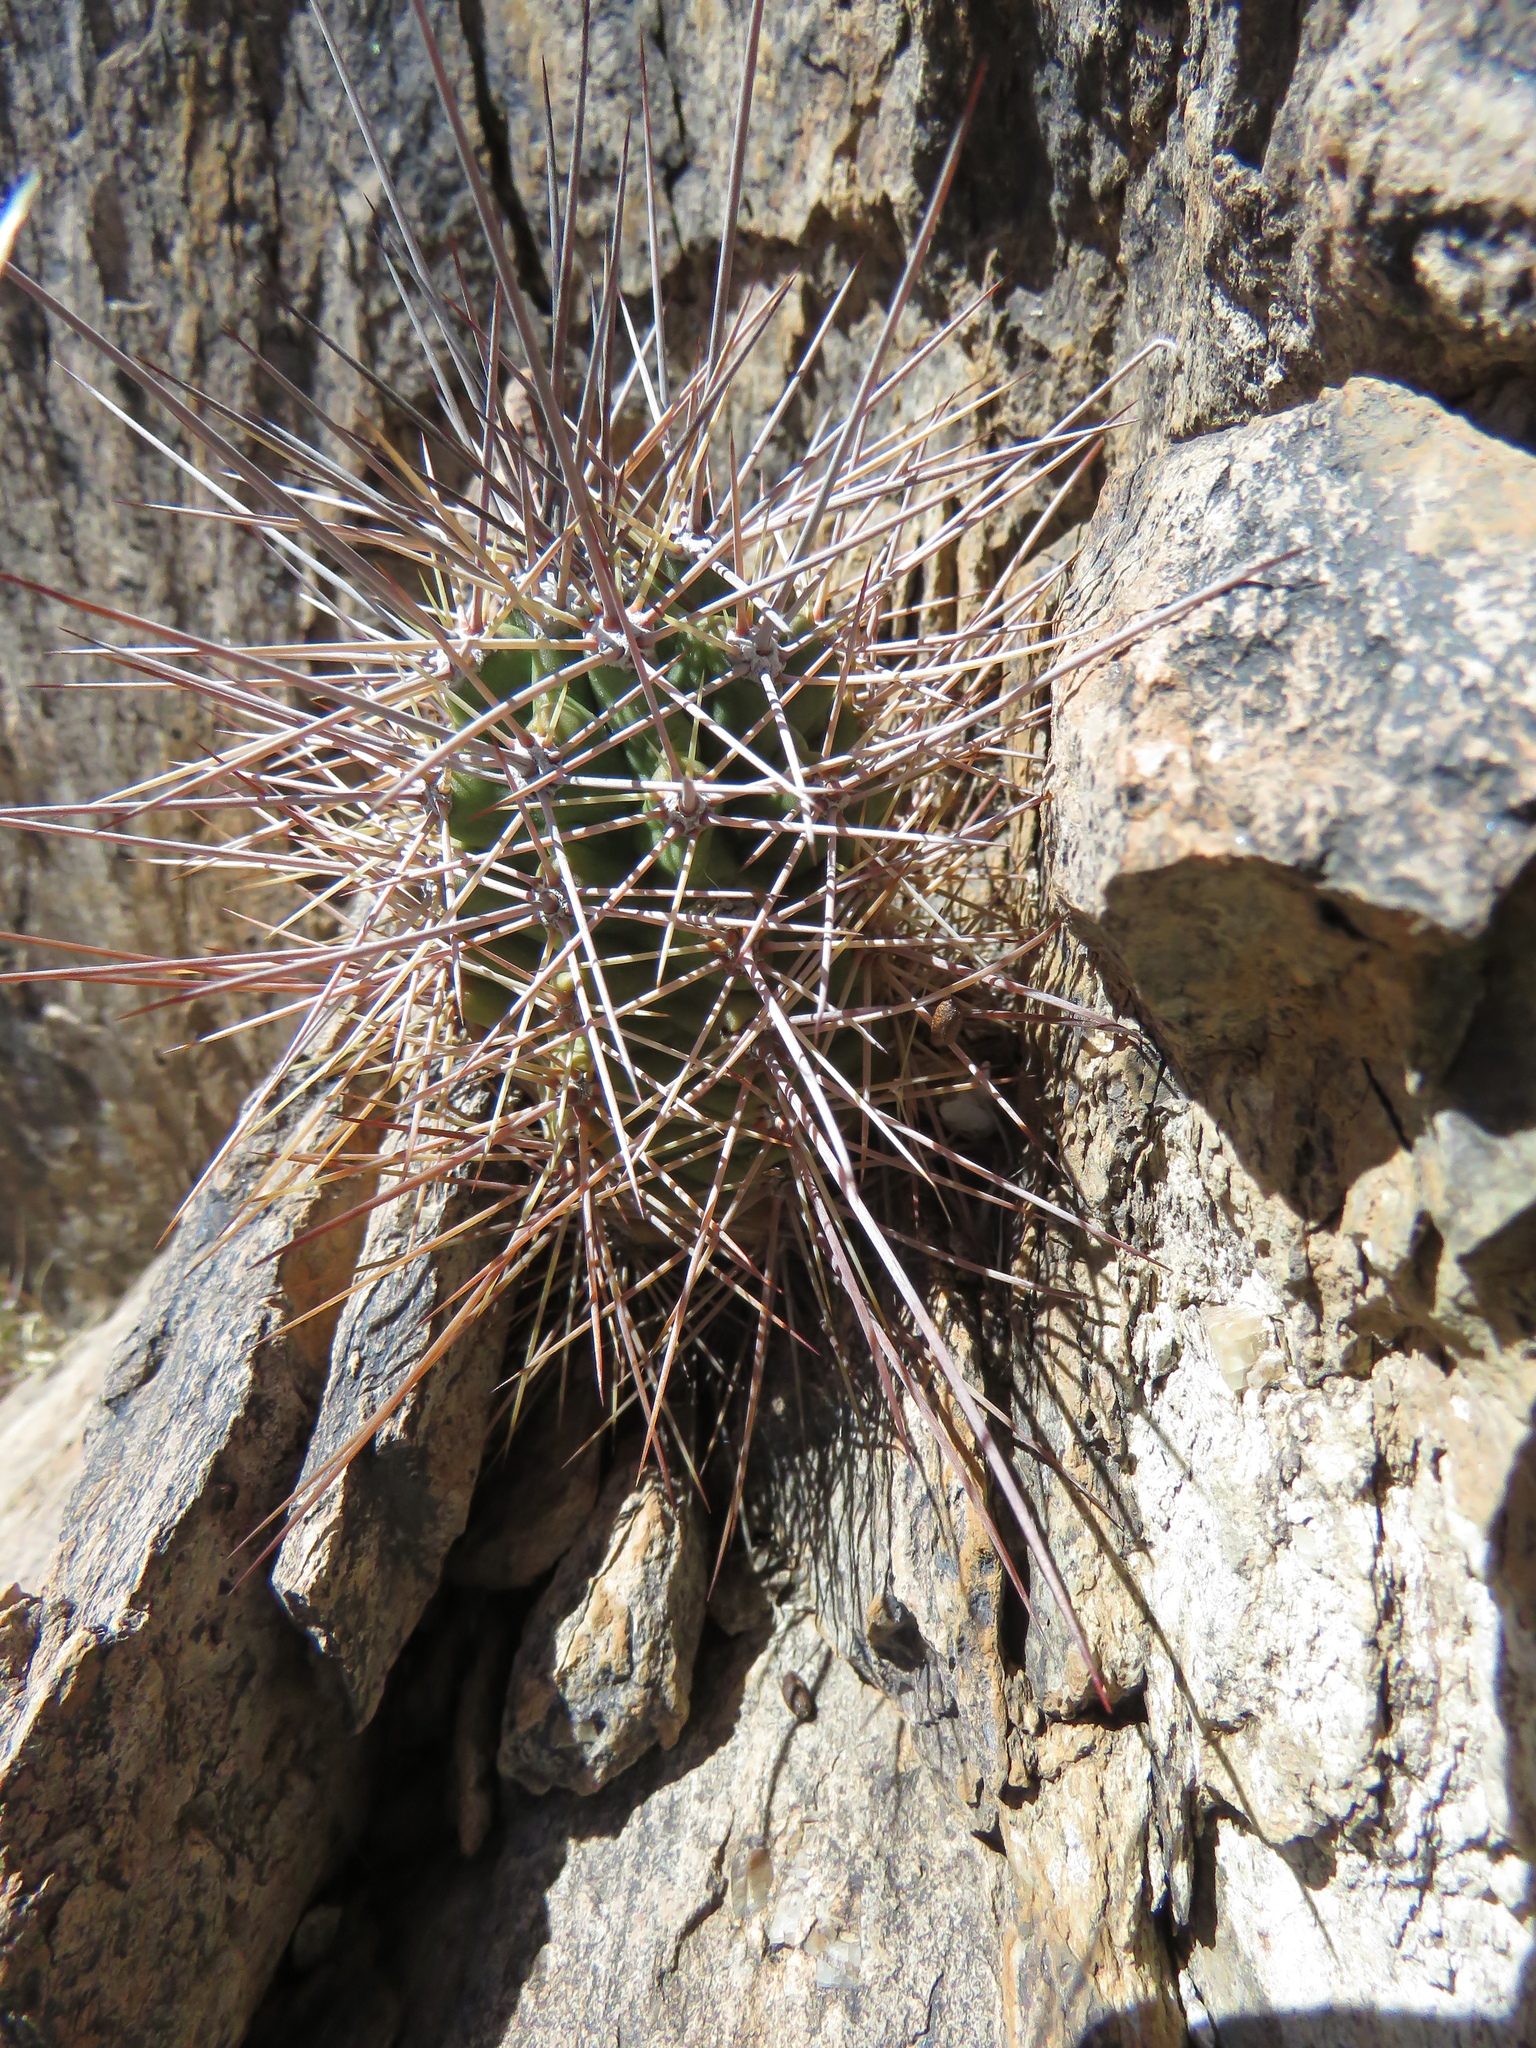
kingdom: Plantae
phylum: Tracheophyta
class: Magnoliopsida
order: Caryophyllales
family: Cactaceae
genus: Echinocereus
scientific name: Echinocereus coccineus
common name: Scarlet hedgehog cactus
